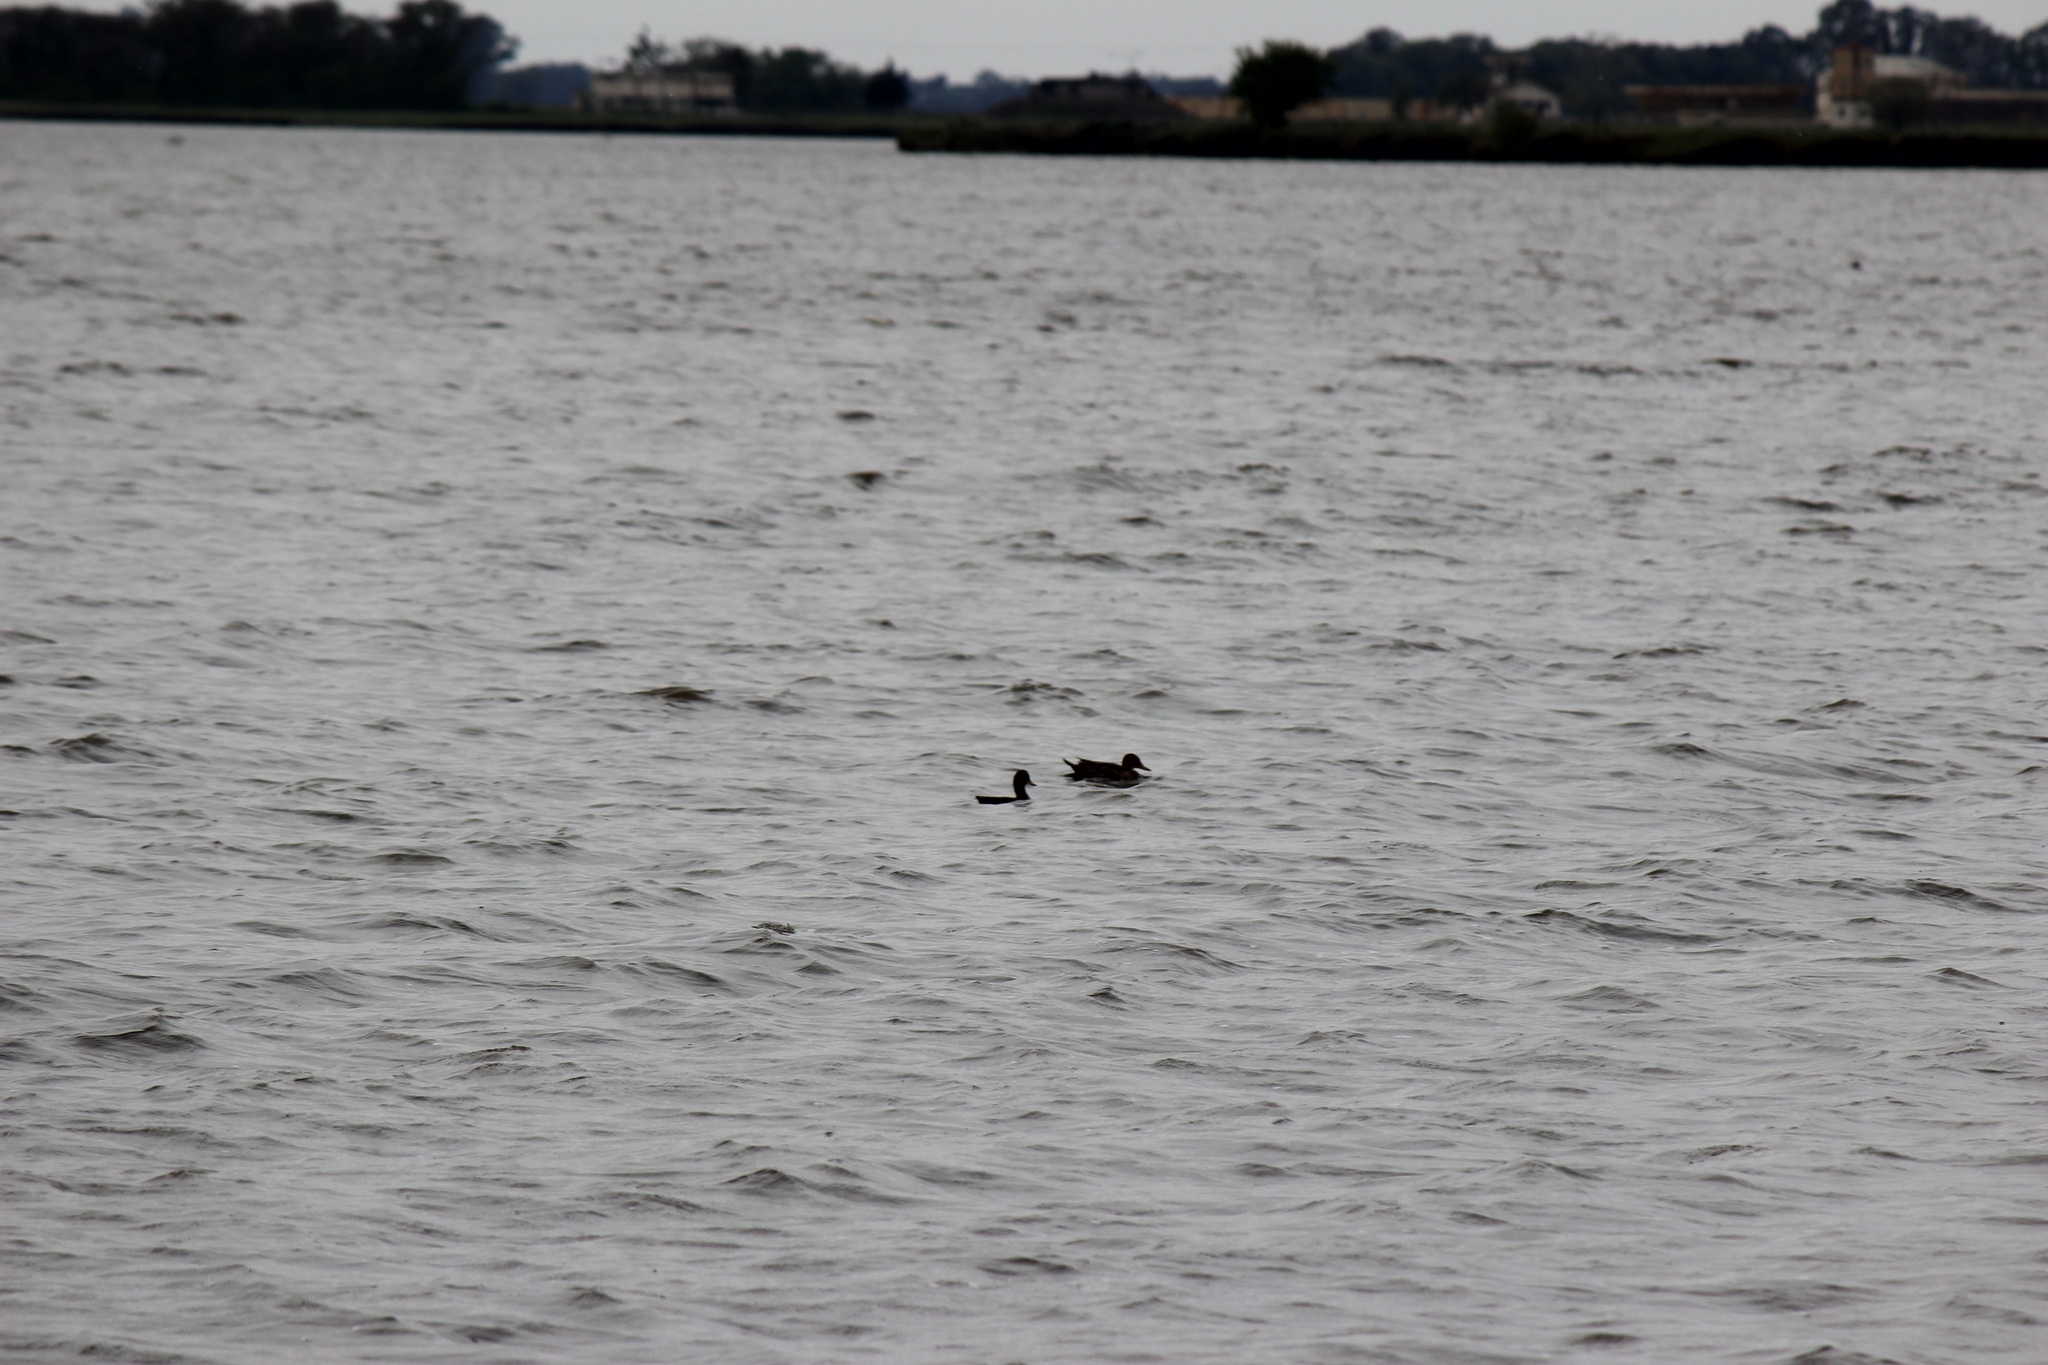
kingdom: Animalia
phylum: Chordata
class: Aves
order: Anseriformes
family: Anatidae
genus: Anas
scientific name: Anas flavirostris
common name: Yellow-billed teal
